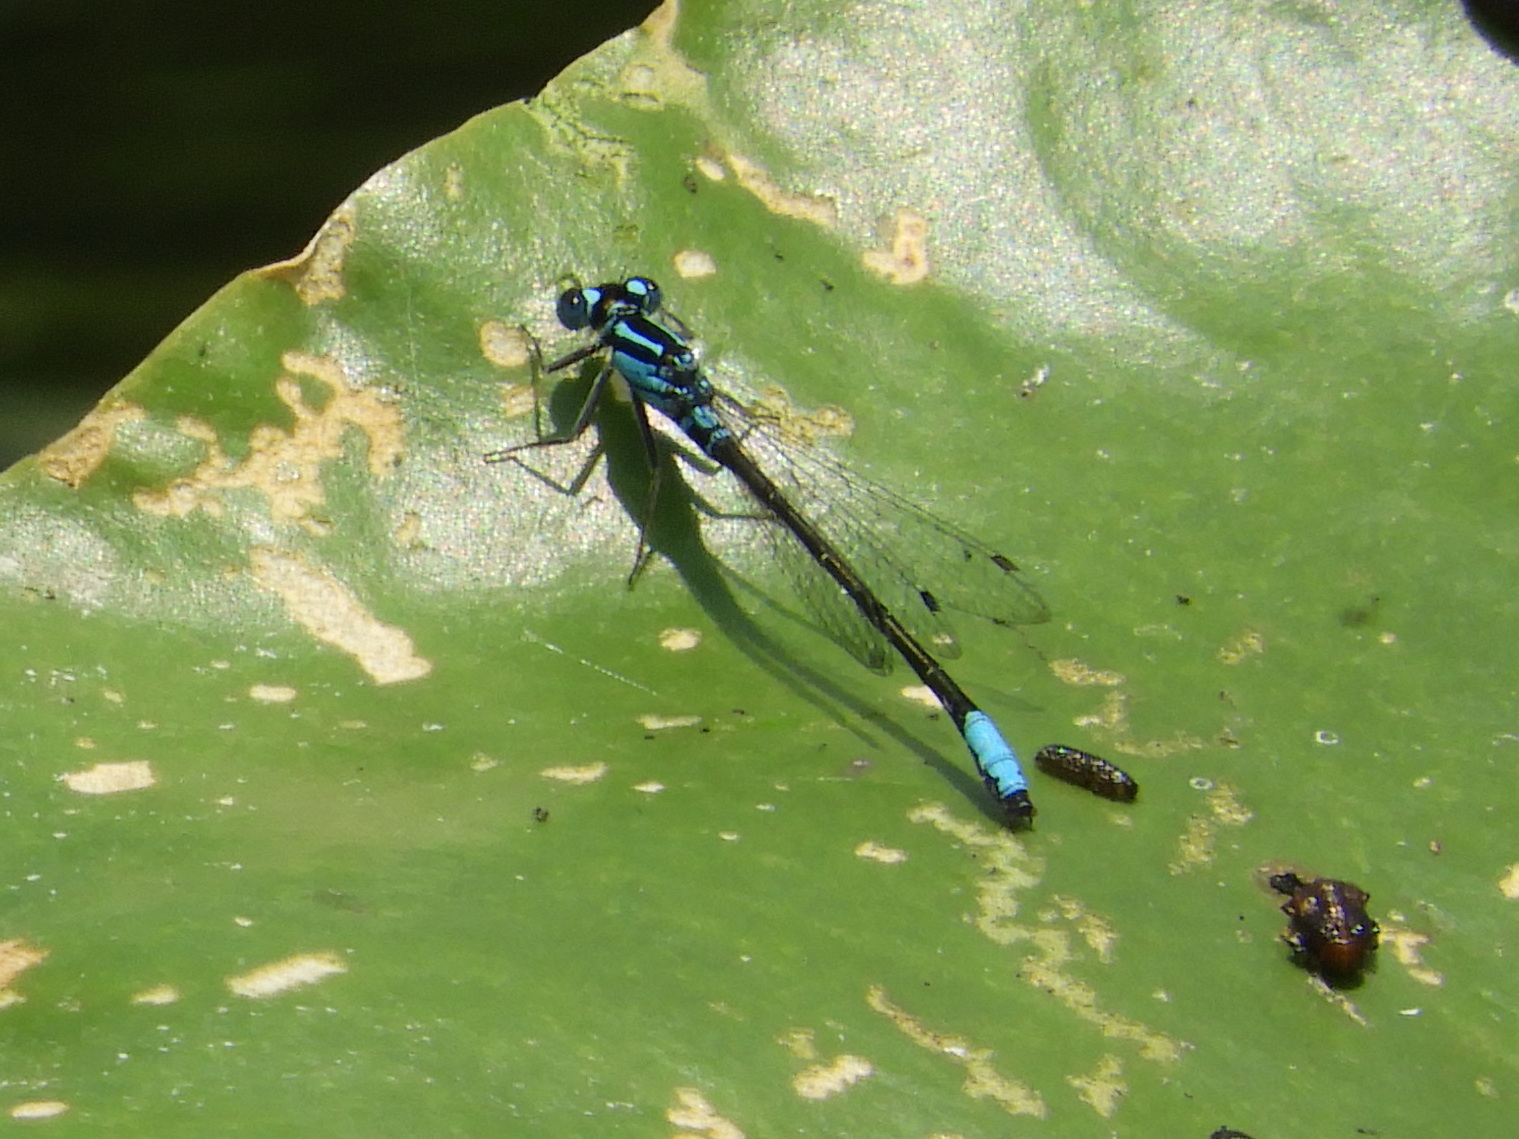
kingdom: Animalia
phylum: Arthropoda
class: Insecta
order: Odonata
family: Coenagrionidae
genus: Ischnura
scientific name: Ischnura kellicotti
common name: Lilypad forktail
